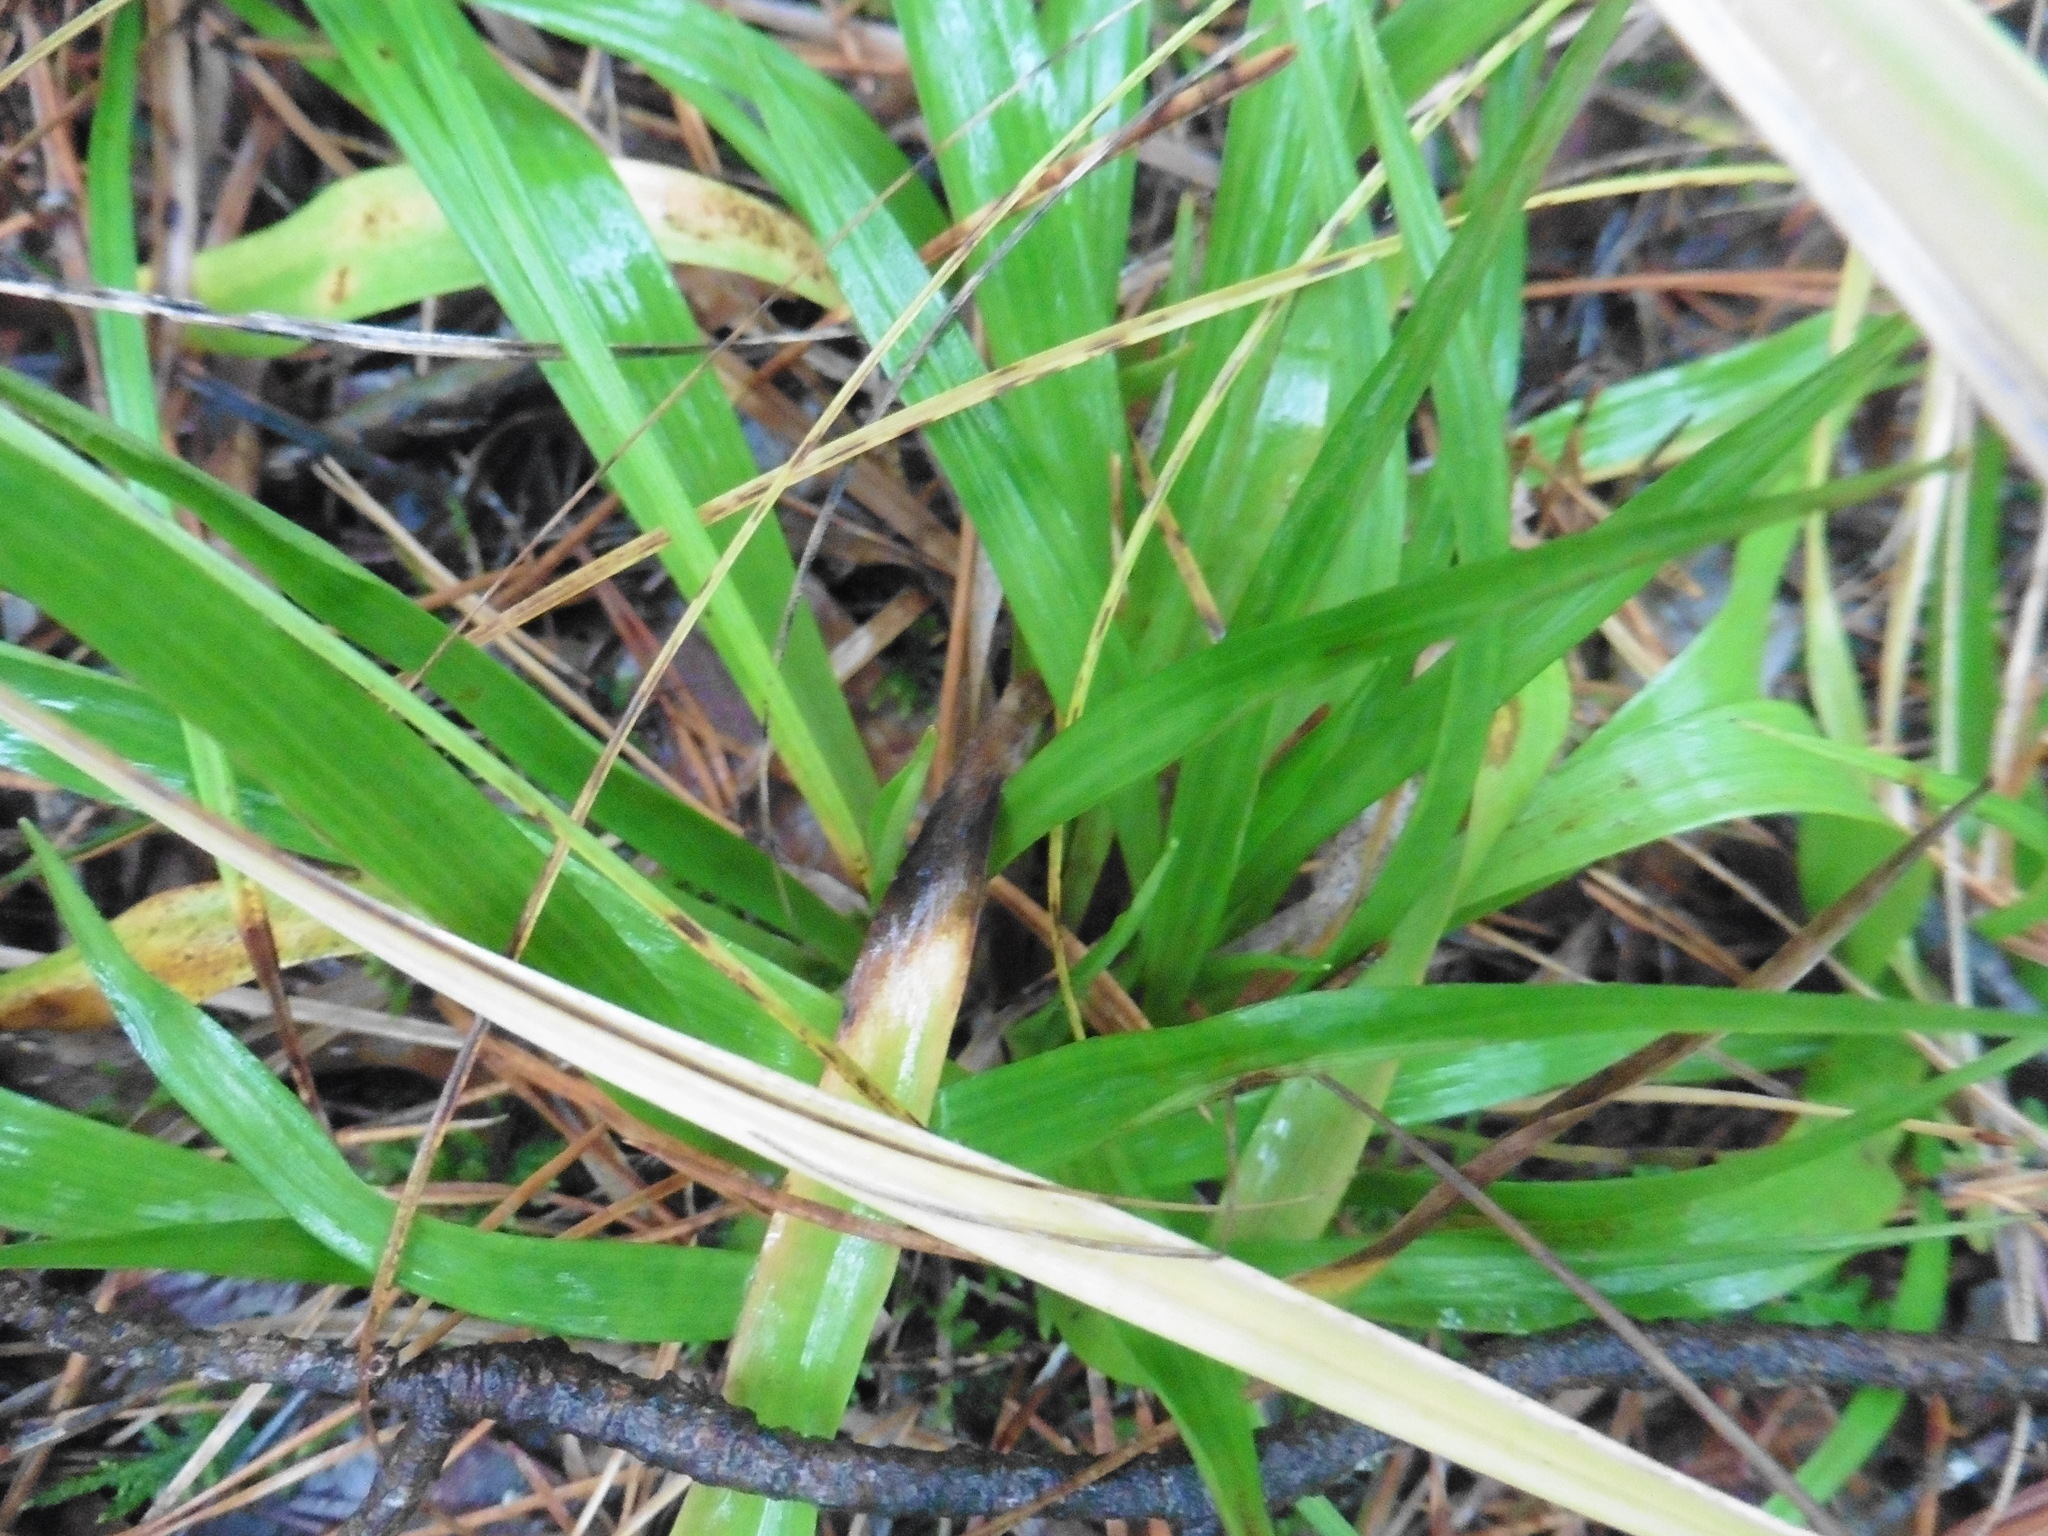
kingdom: Plantae
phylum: Tracheophyta
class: Liliopsida
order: Poales
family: Juncaceae
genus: Luzula
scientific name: Luzula pilosa
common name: Hairy wood-rush
